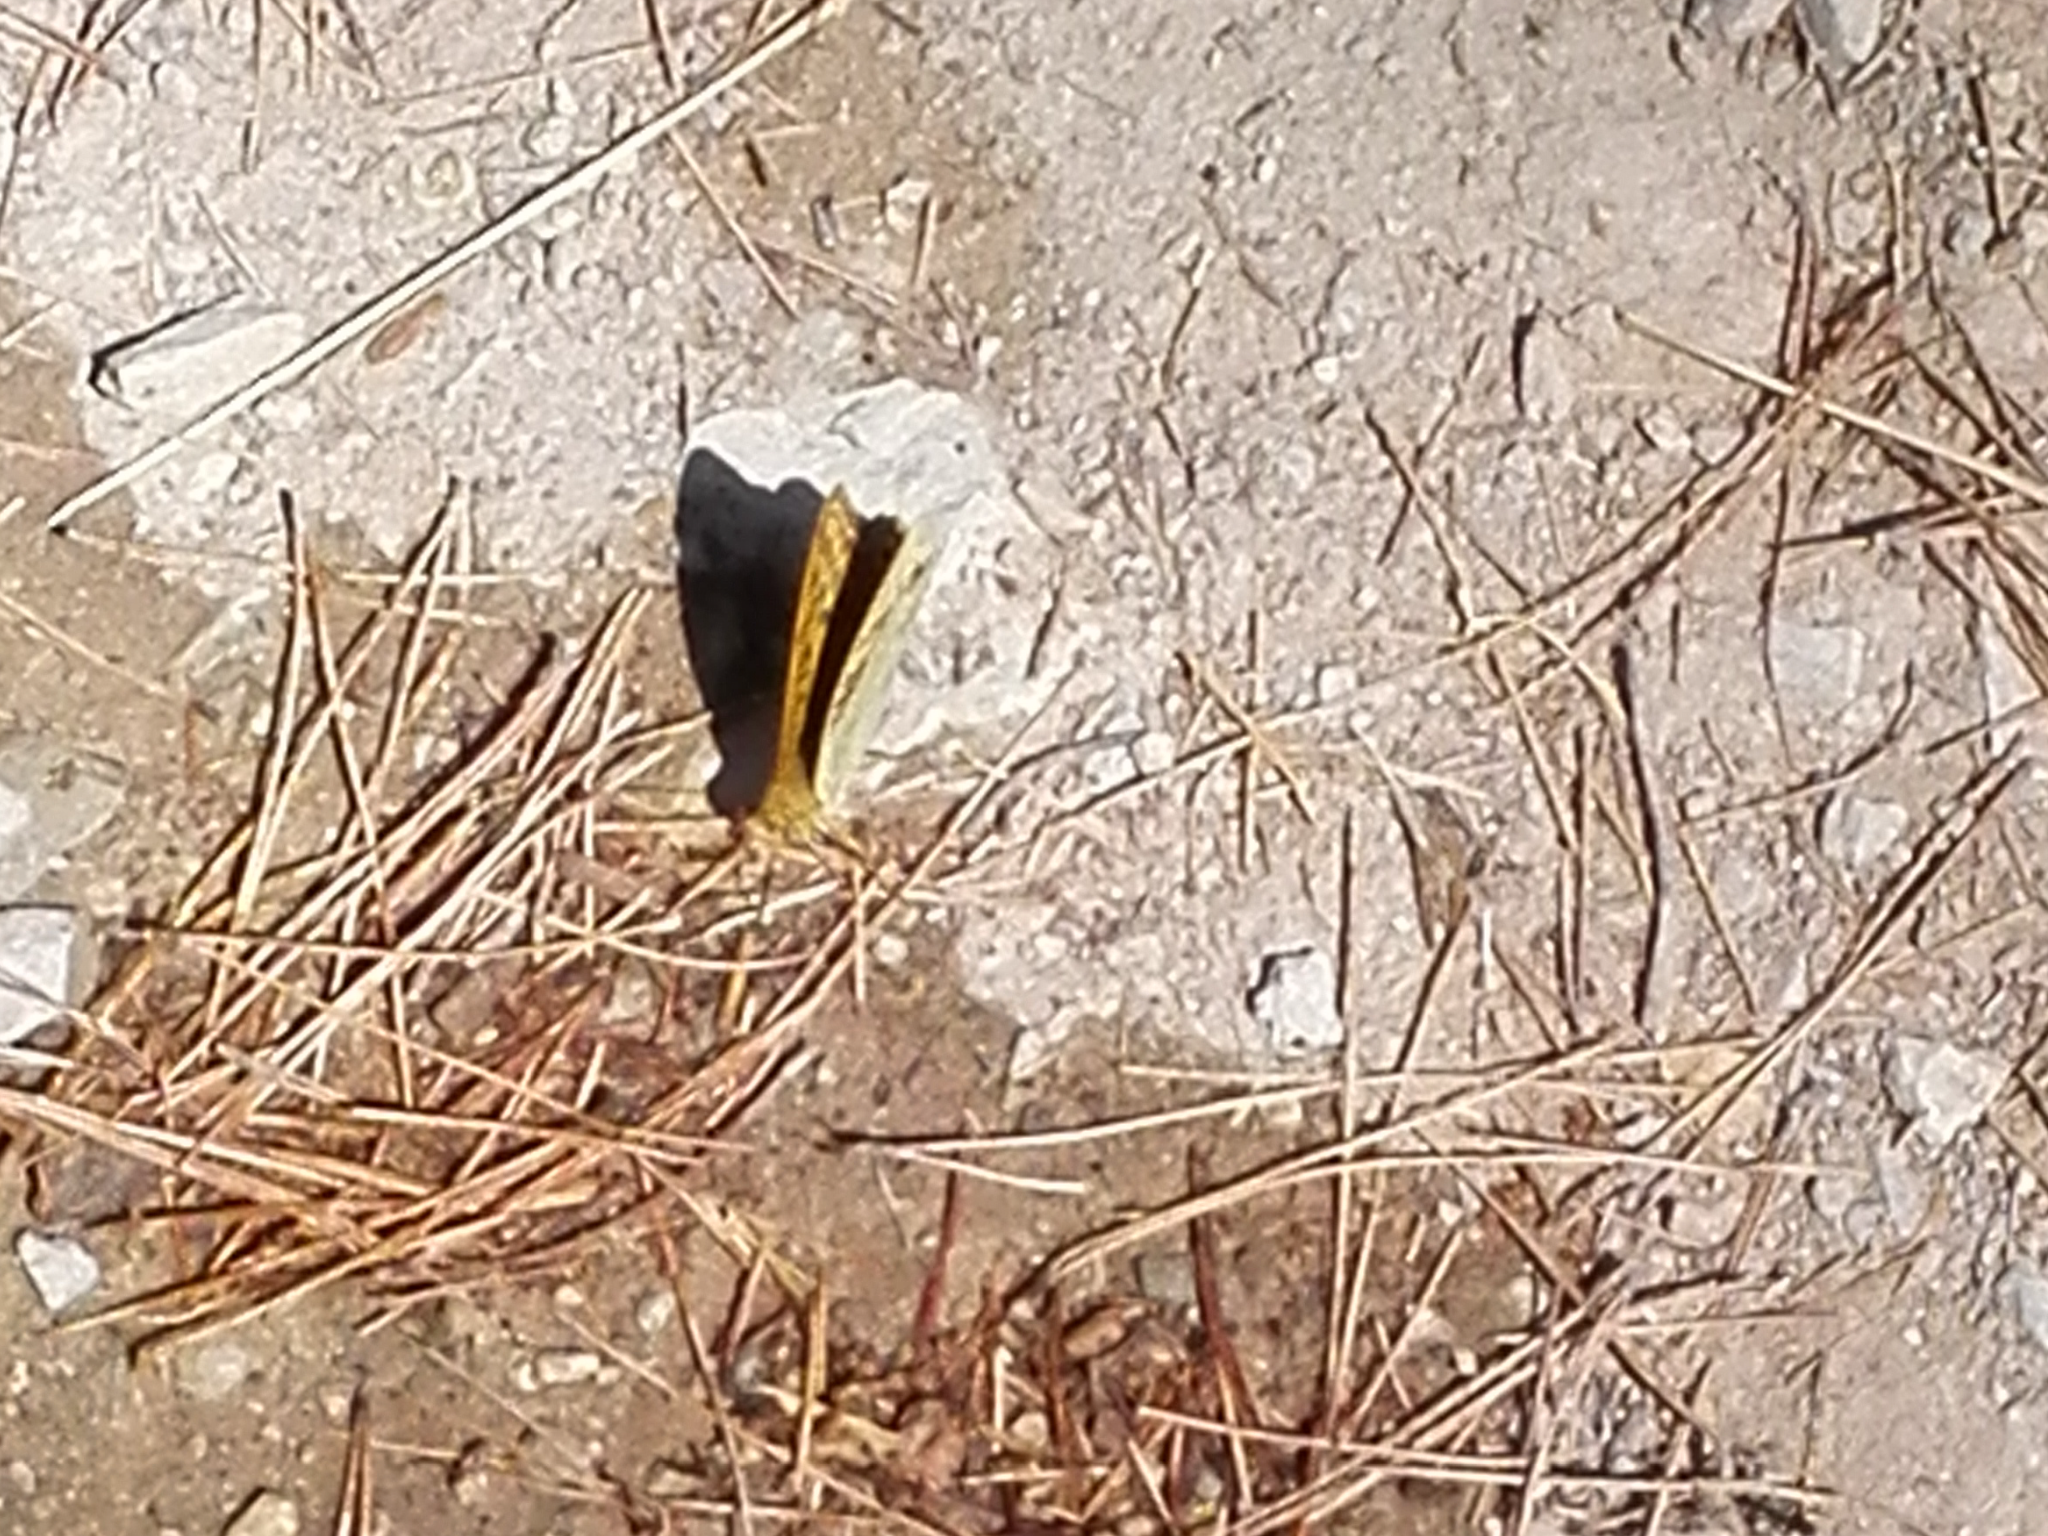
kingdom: Animalia
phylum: Arthropoda
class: Insecta
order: Lepidoptera
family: Nymphalidae
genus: Damora
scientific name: Damora pandora
